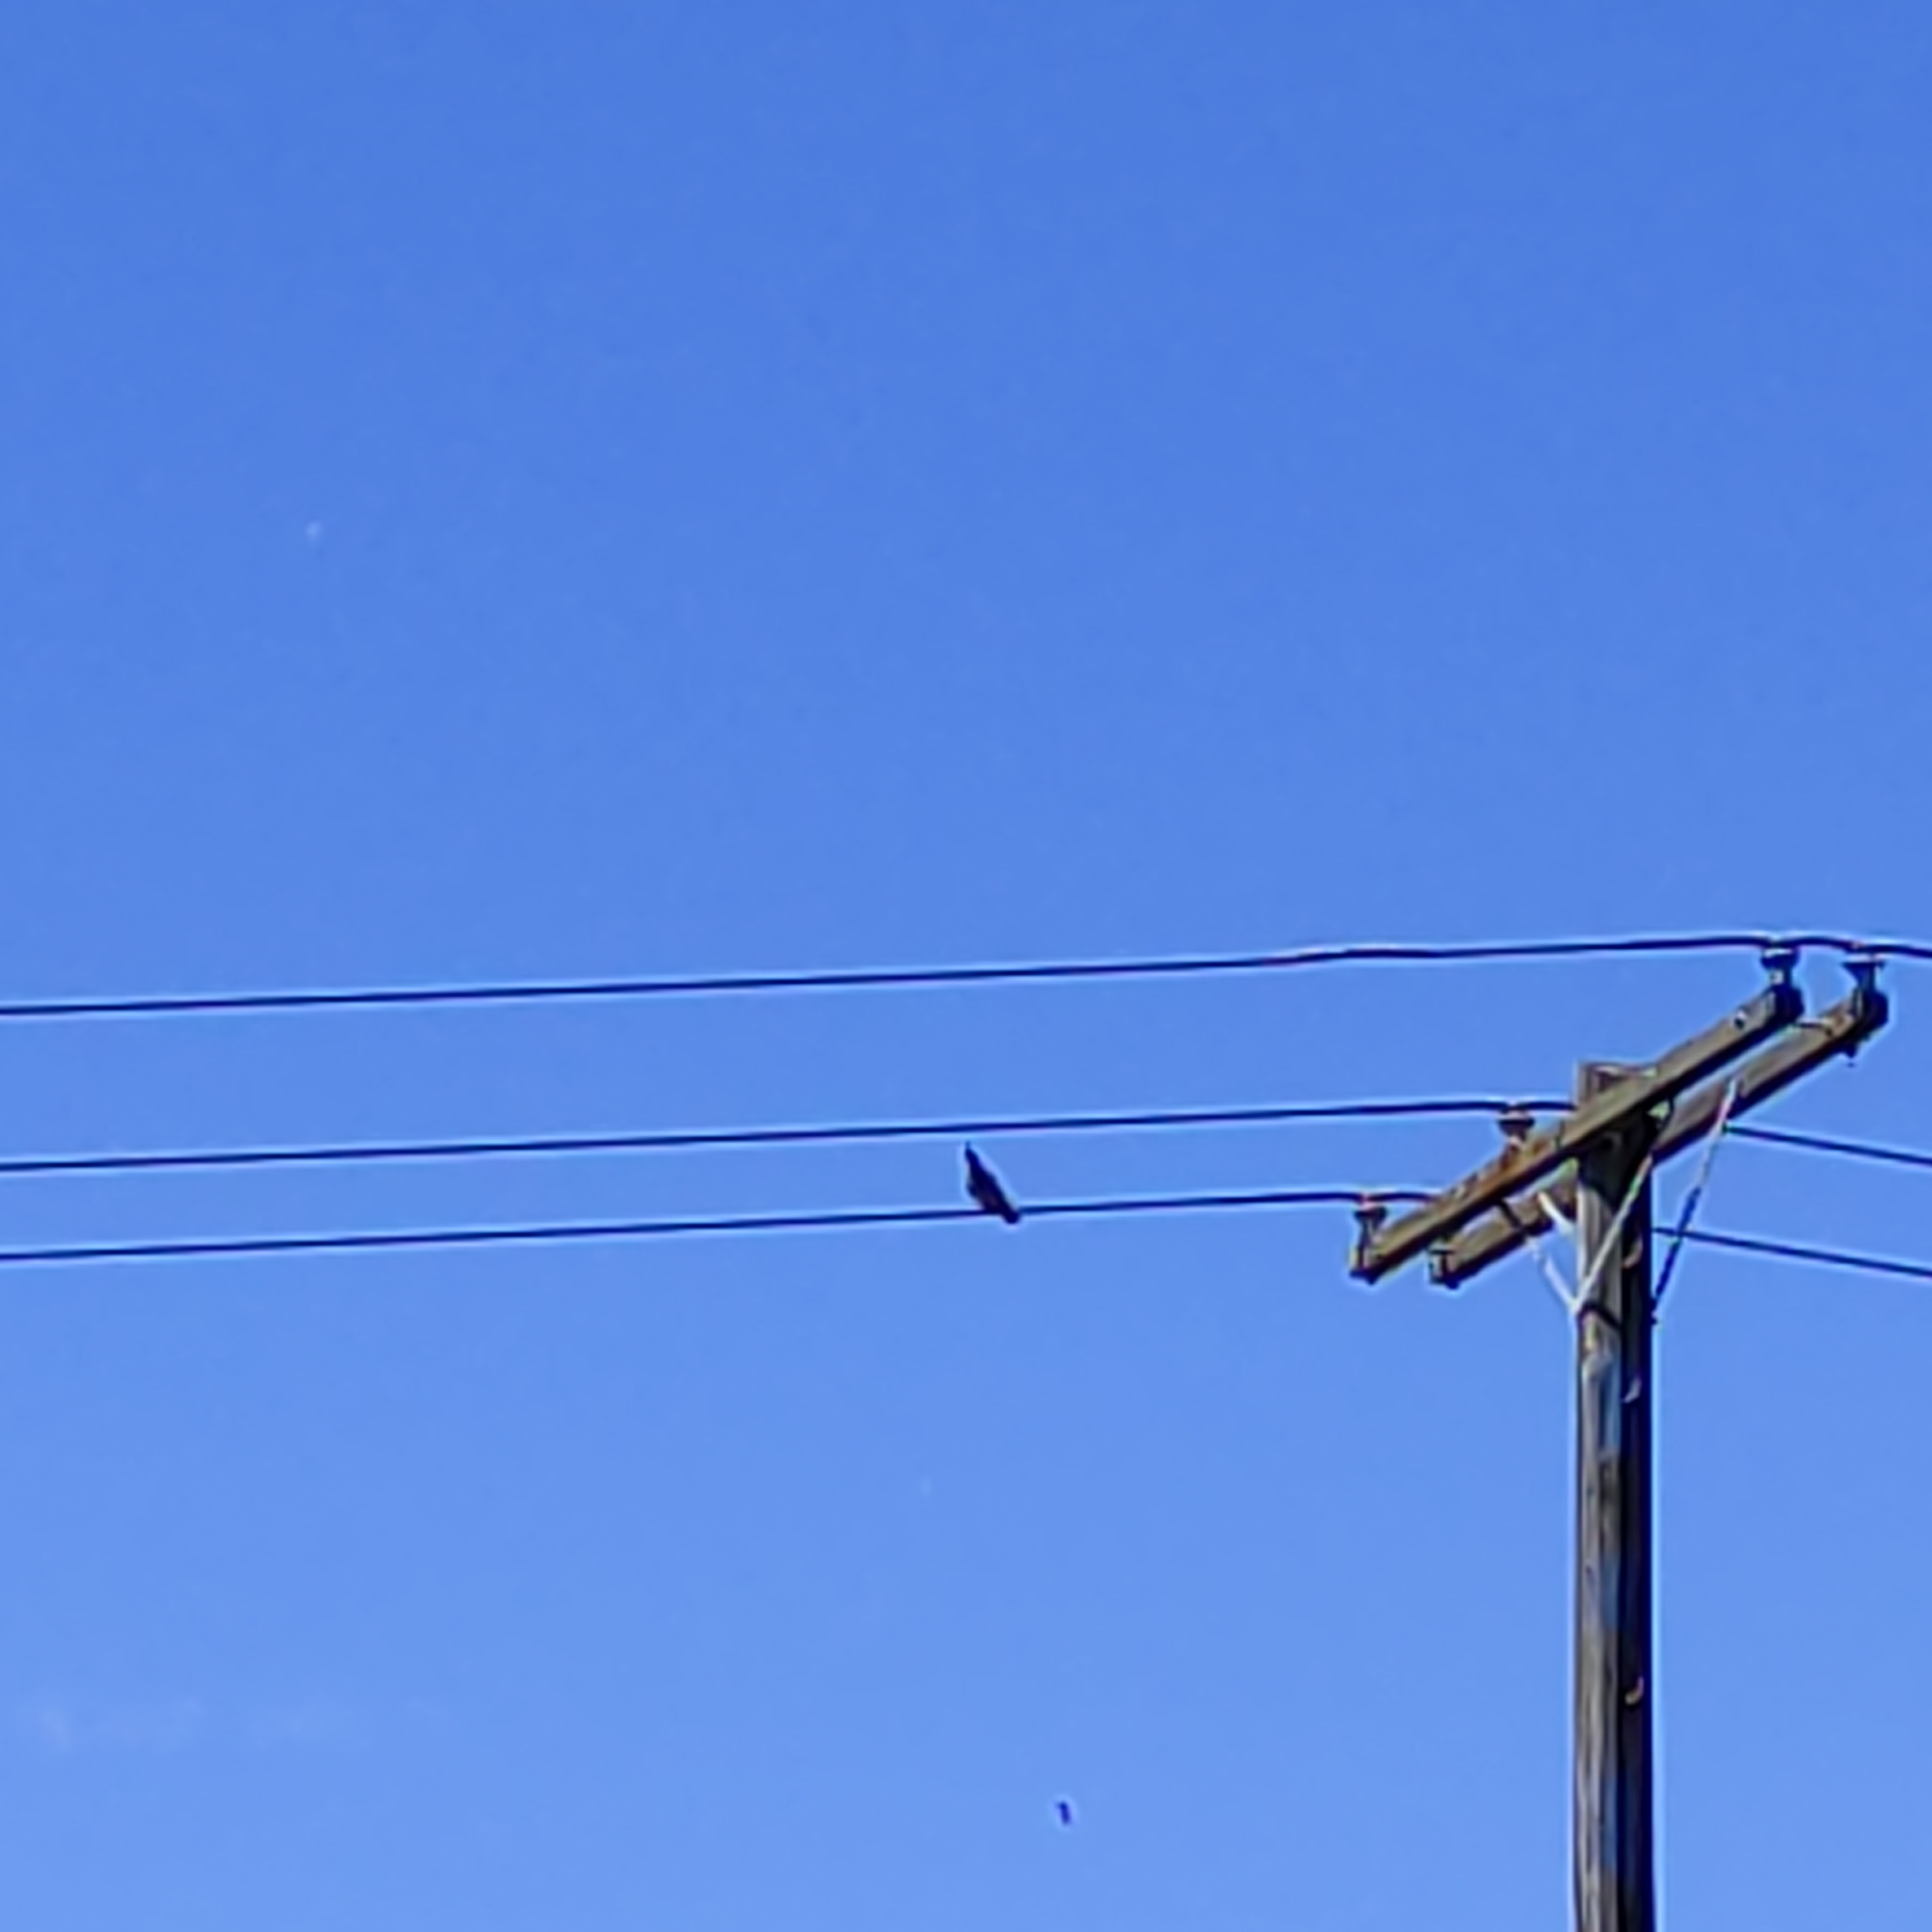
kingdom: Animalia
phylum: Chordata
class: Aves
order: Columbiformes
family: Columbidae
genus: Columba
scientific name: Columba livia
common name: Rock pigeon
